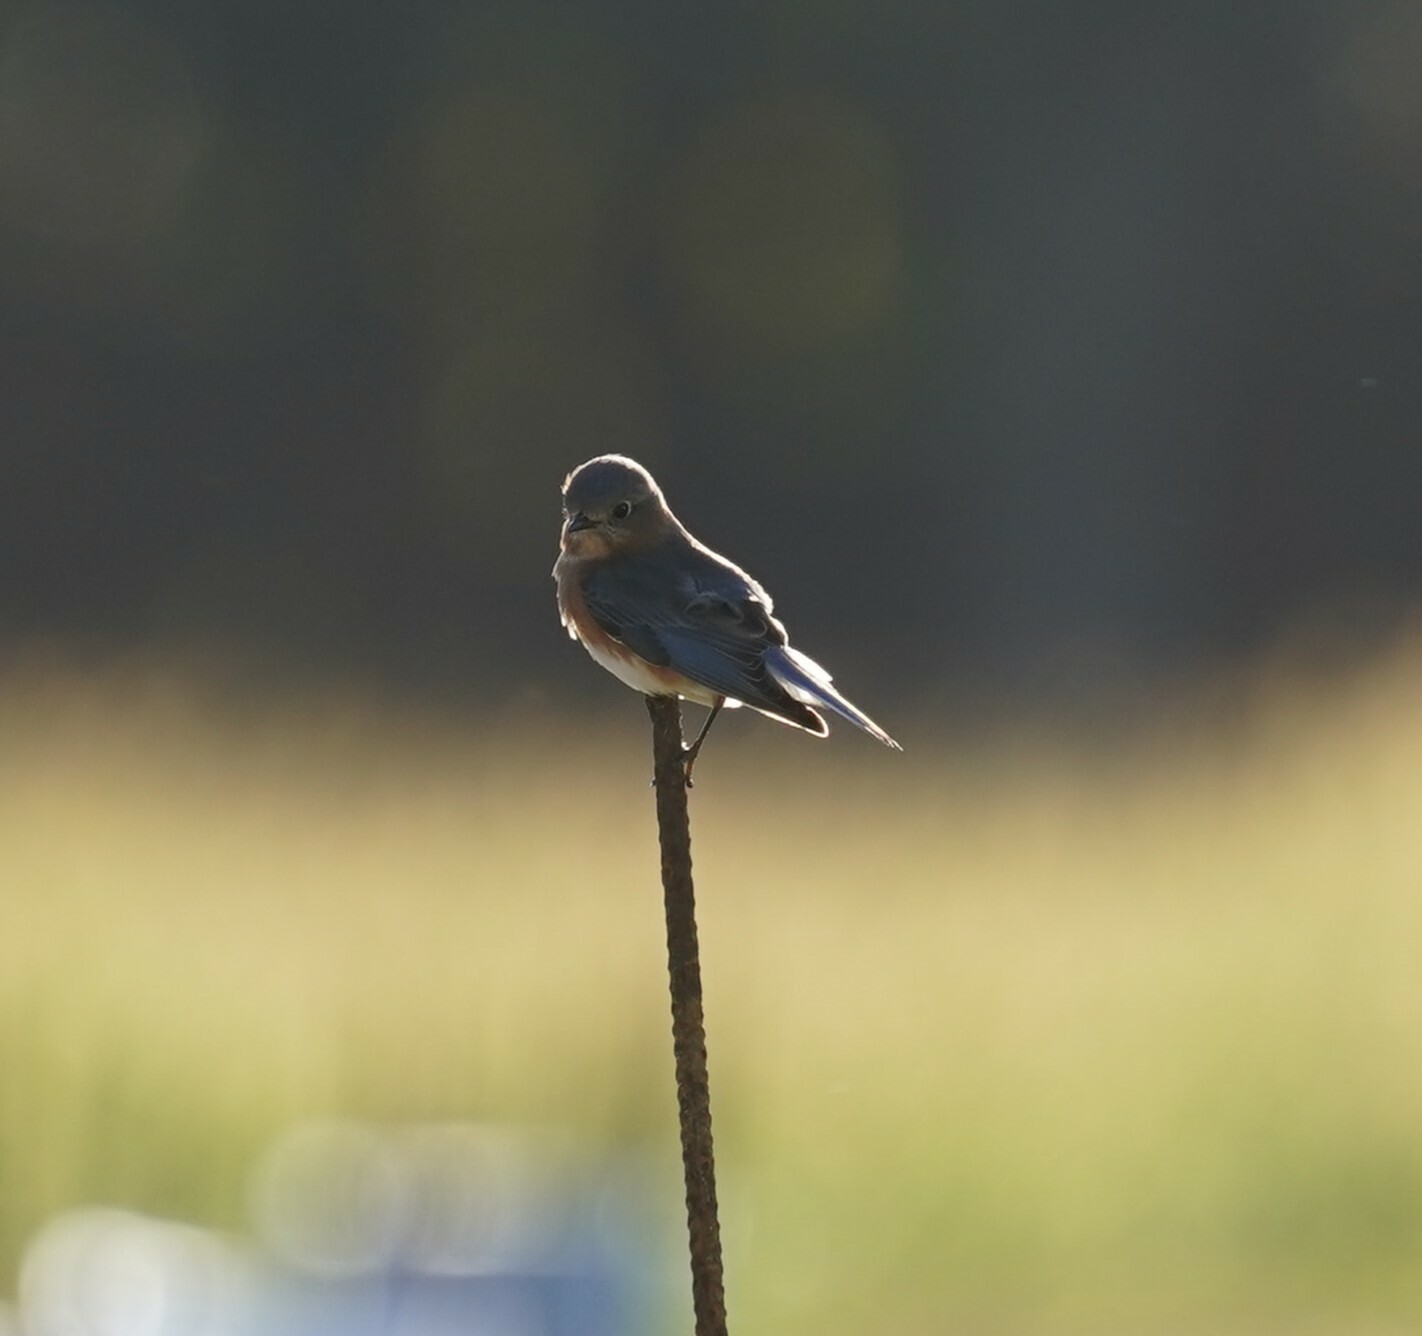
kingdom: Animalia
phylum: Chordata
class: Aves
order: Passeriformes
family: Turdidae
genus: Sialia
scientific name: Sialia sialis
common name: Eastern bluebird
